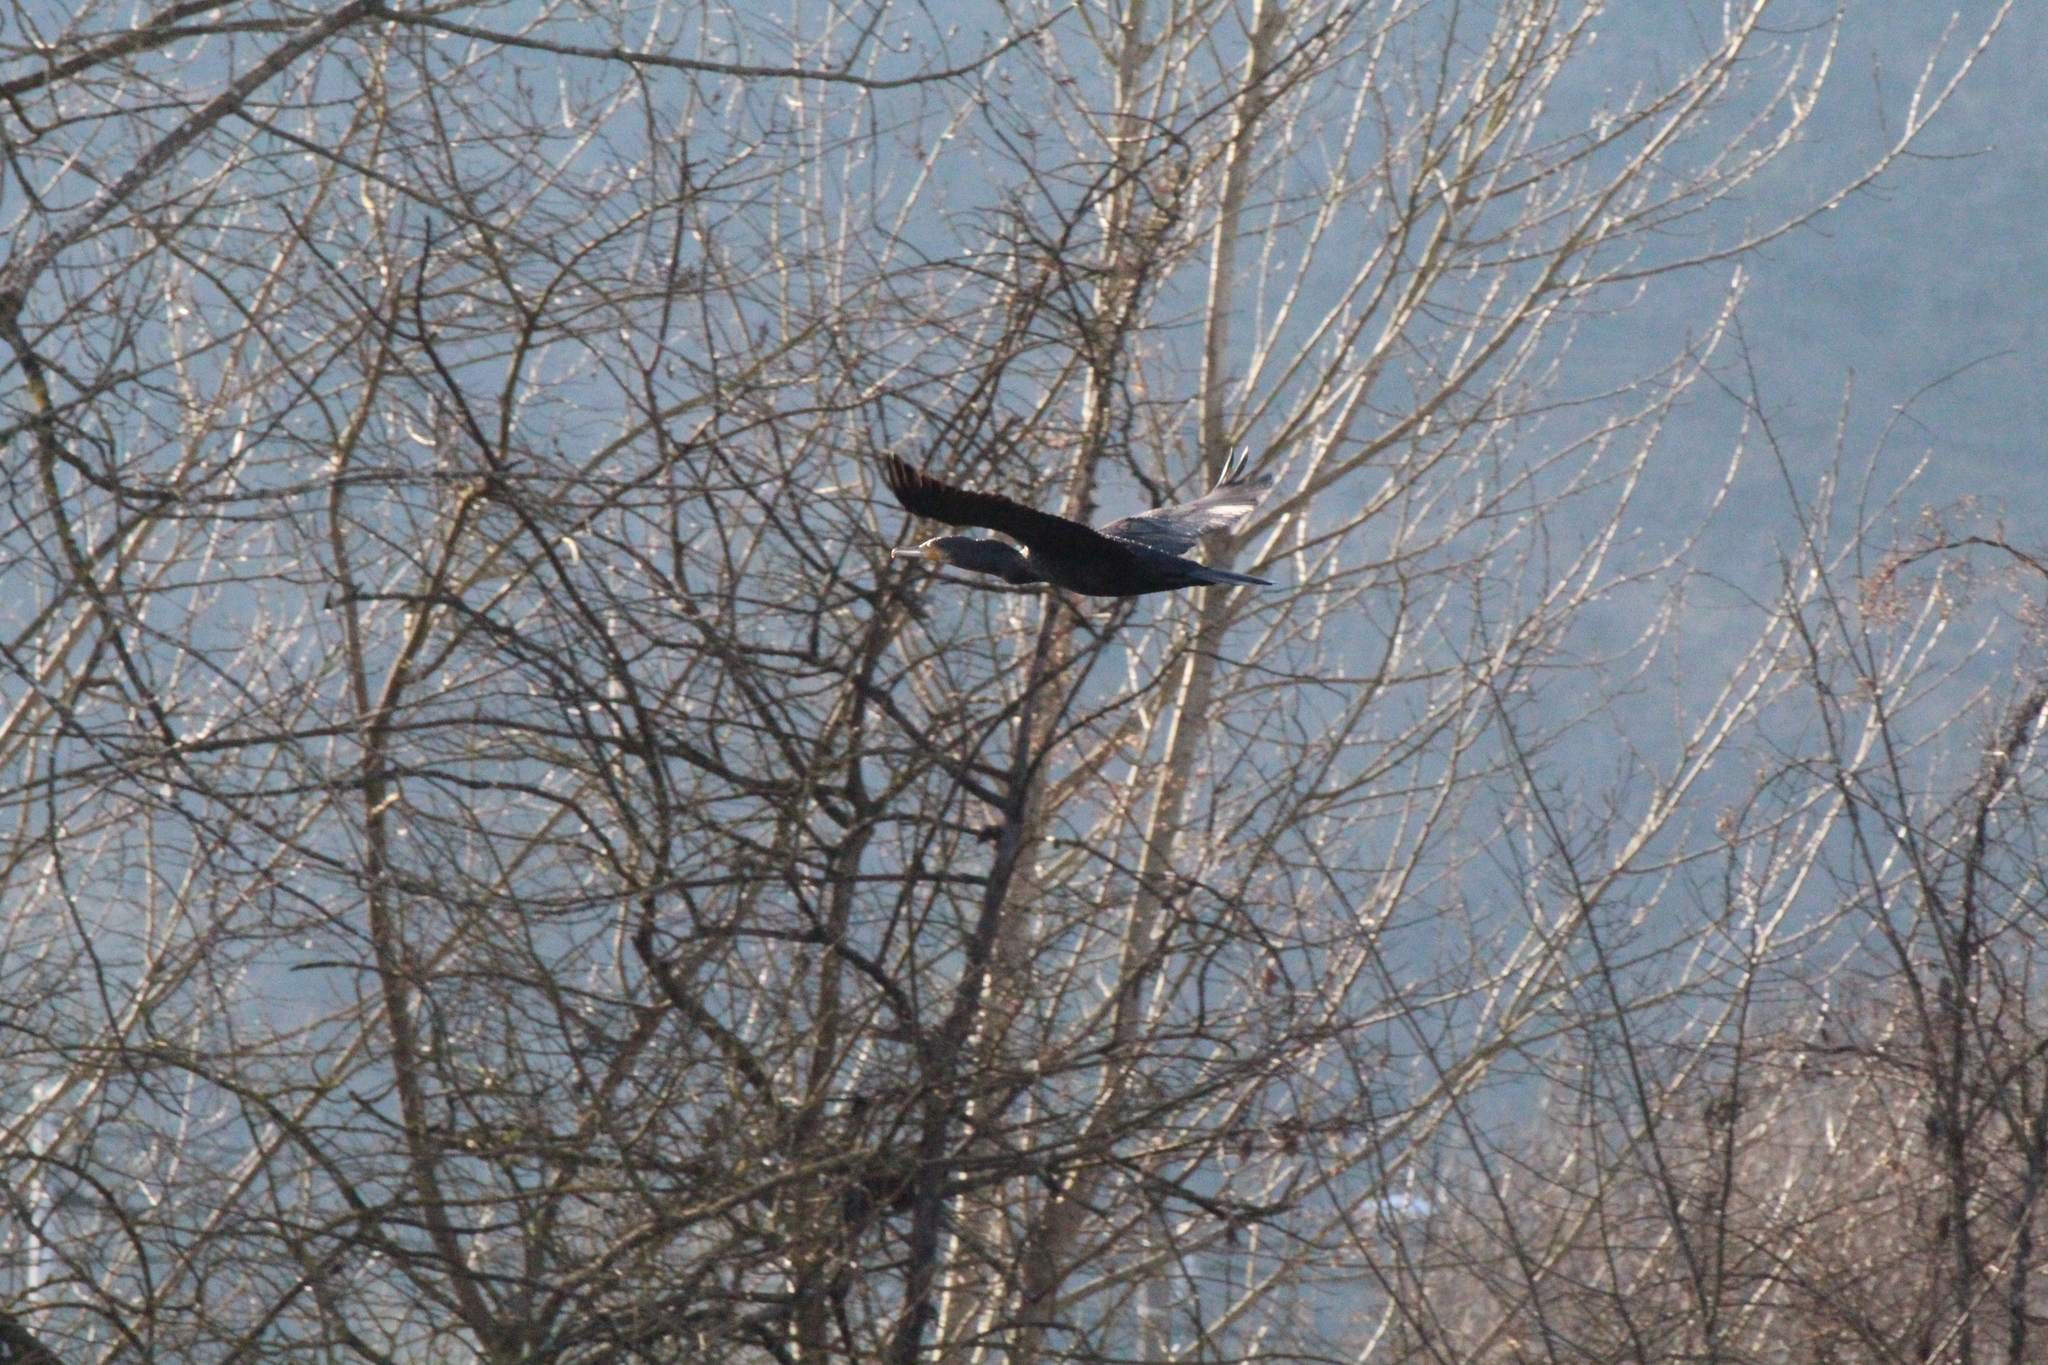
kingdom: Animalia
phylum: Chordata
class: Aves
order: Suliformes
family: Phalacrocoracidae
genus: Phalacrocorax
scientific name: Phalacrocorax carbo
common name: Great cormorant
